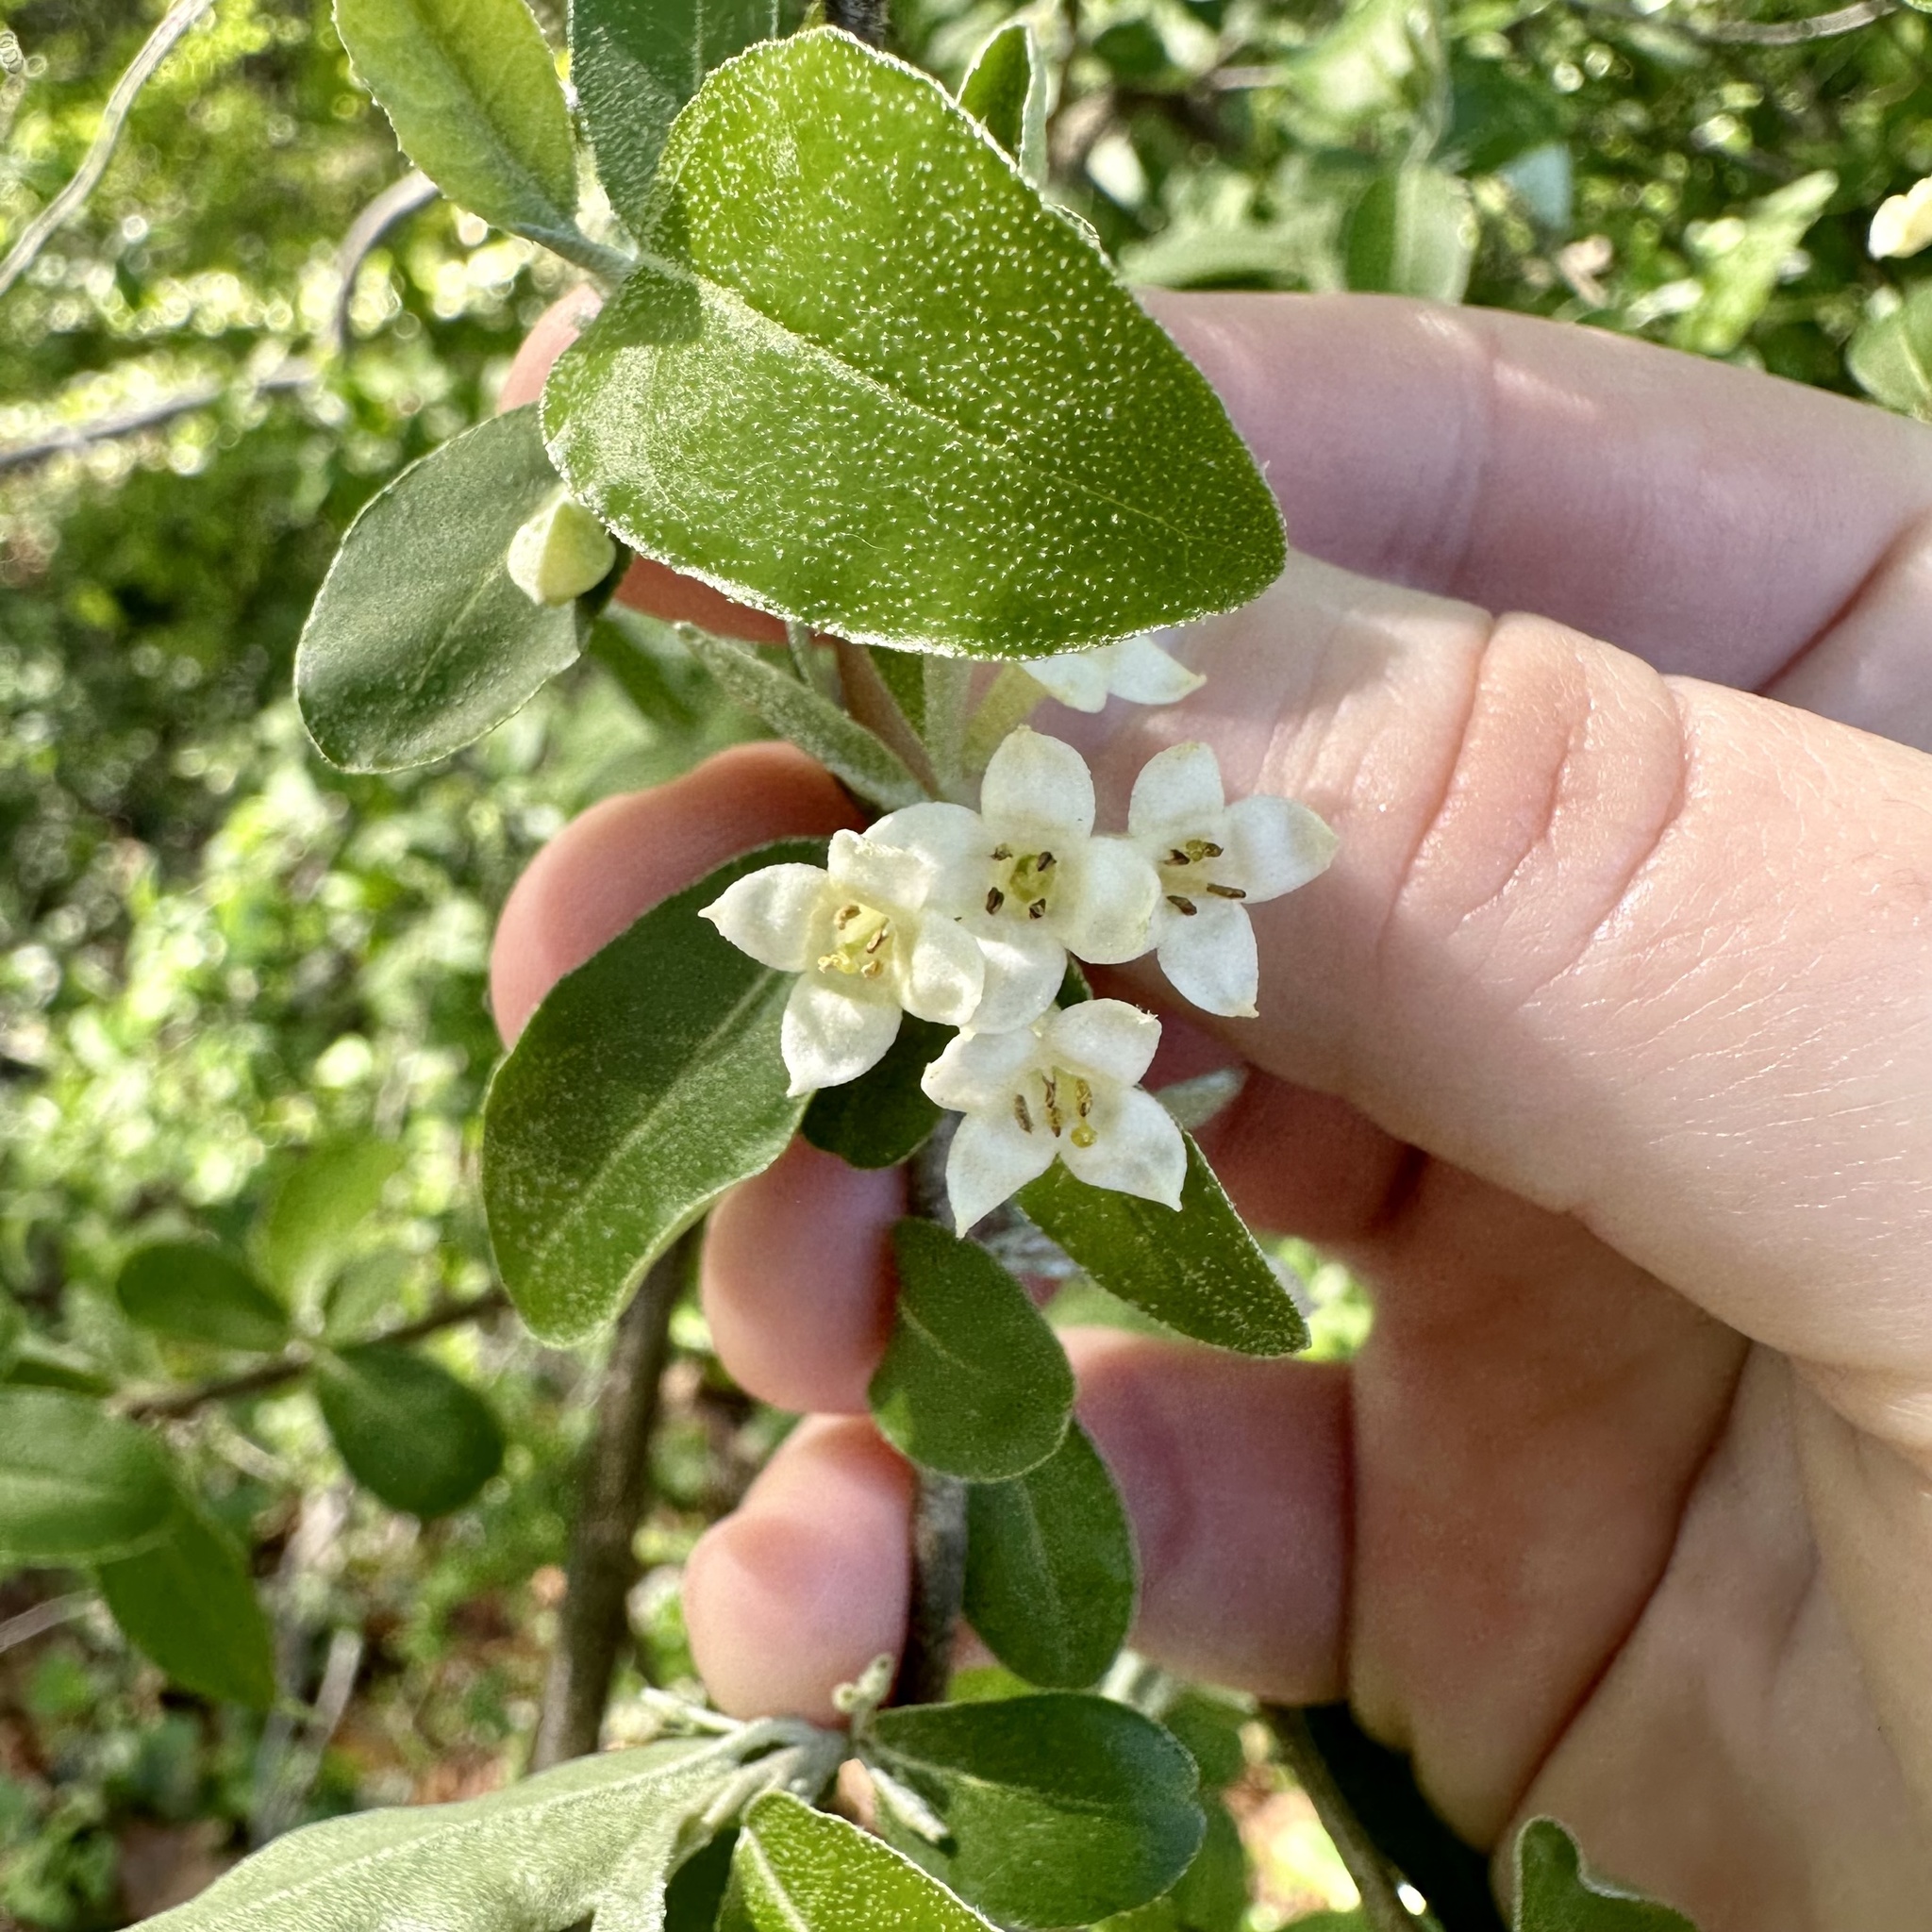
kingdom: Plantae
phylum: Tracheophyta
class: Magnoliopsida
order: Rosales
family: Elaeagnaceae
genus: Elaeagnus
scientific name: Elaeagnus umbellata
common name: Autumn olive
